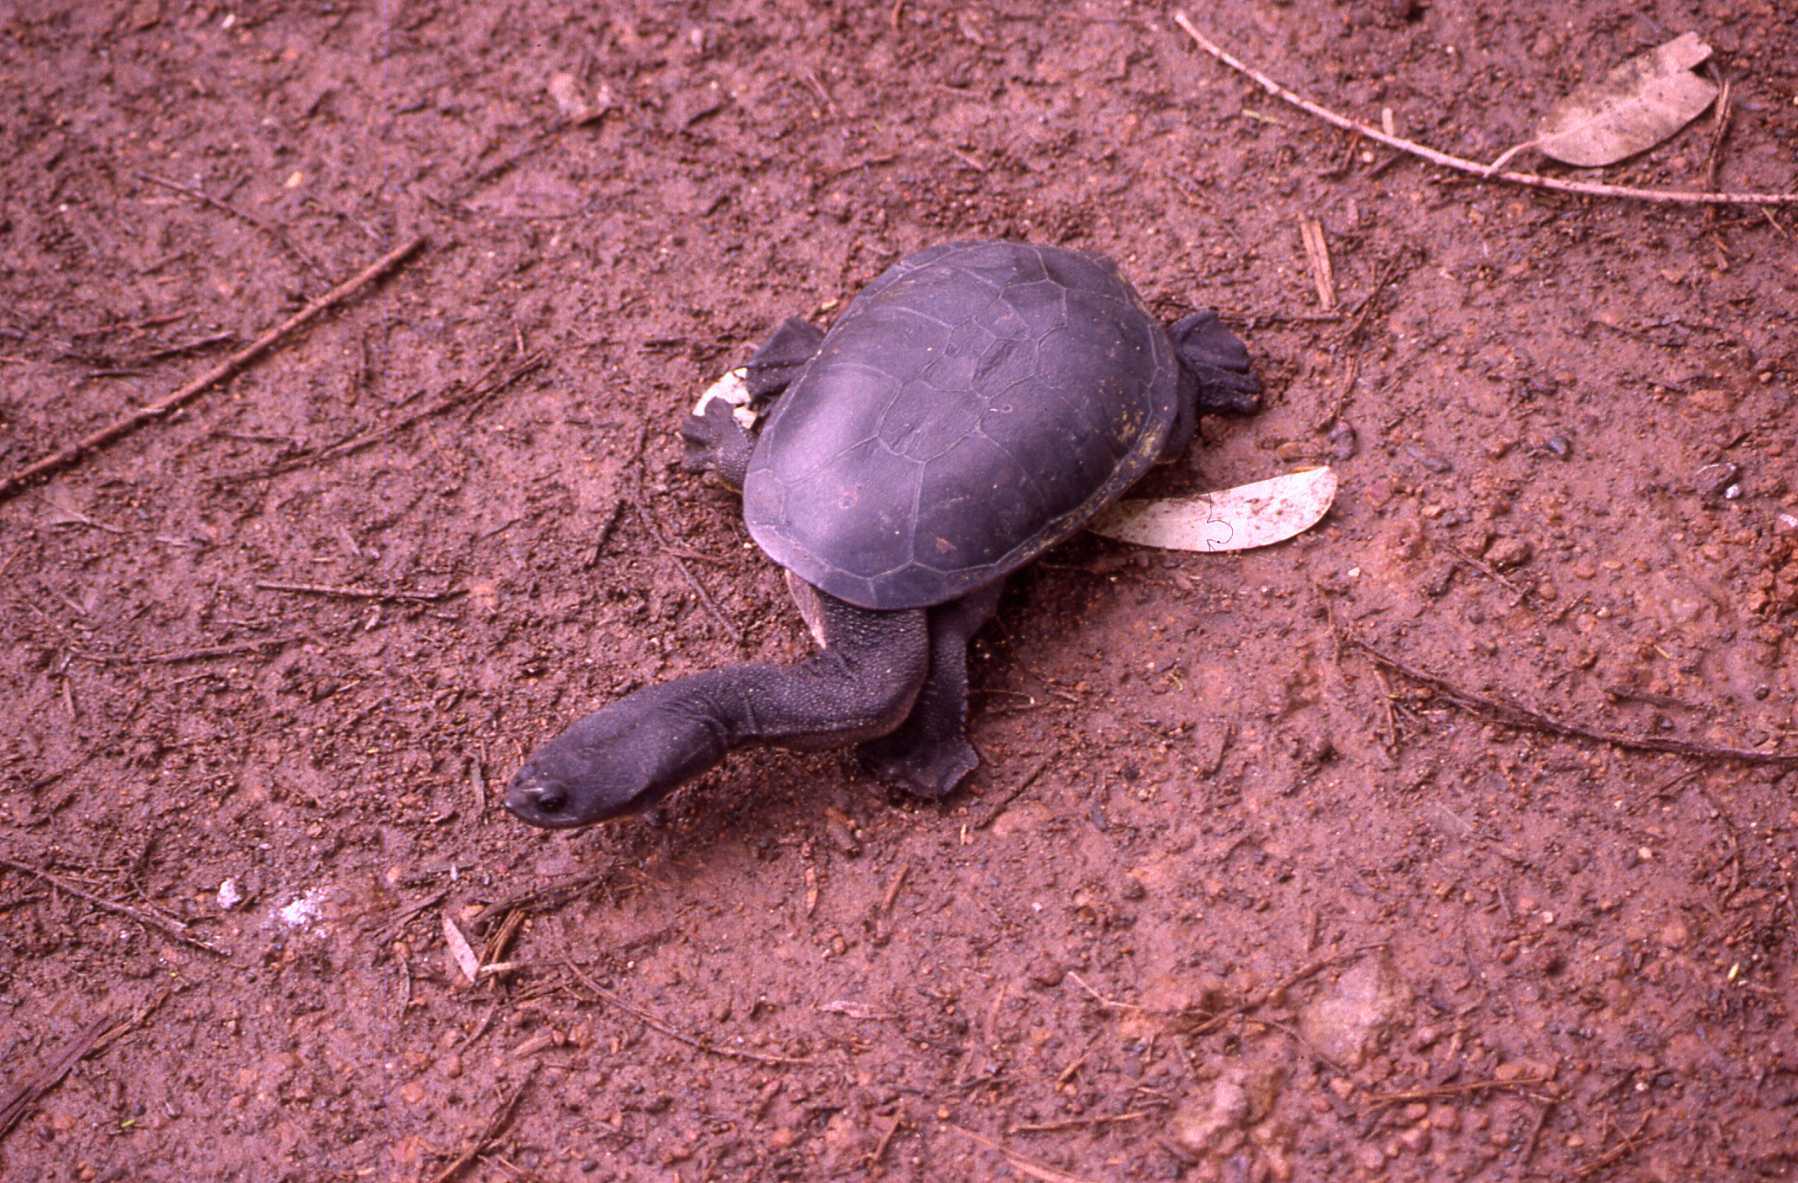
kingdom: Animalia
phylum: Chordata
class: Testudines
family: Chelidae
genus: Chelodina
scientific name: Chelodina oblonga
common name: Northern snake-necked turtle
